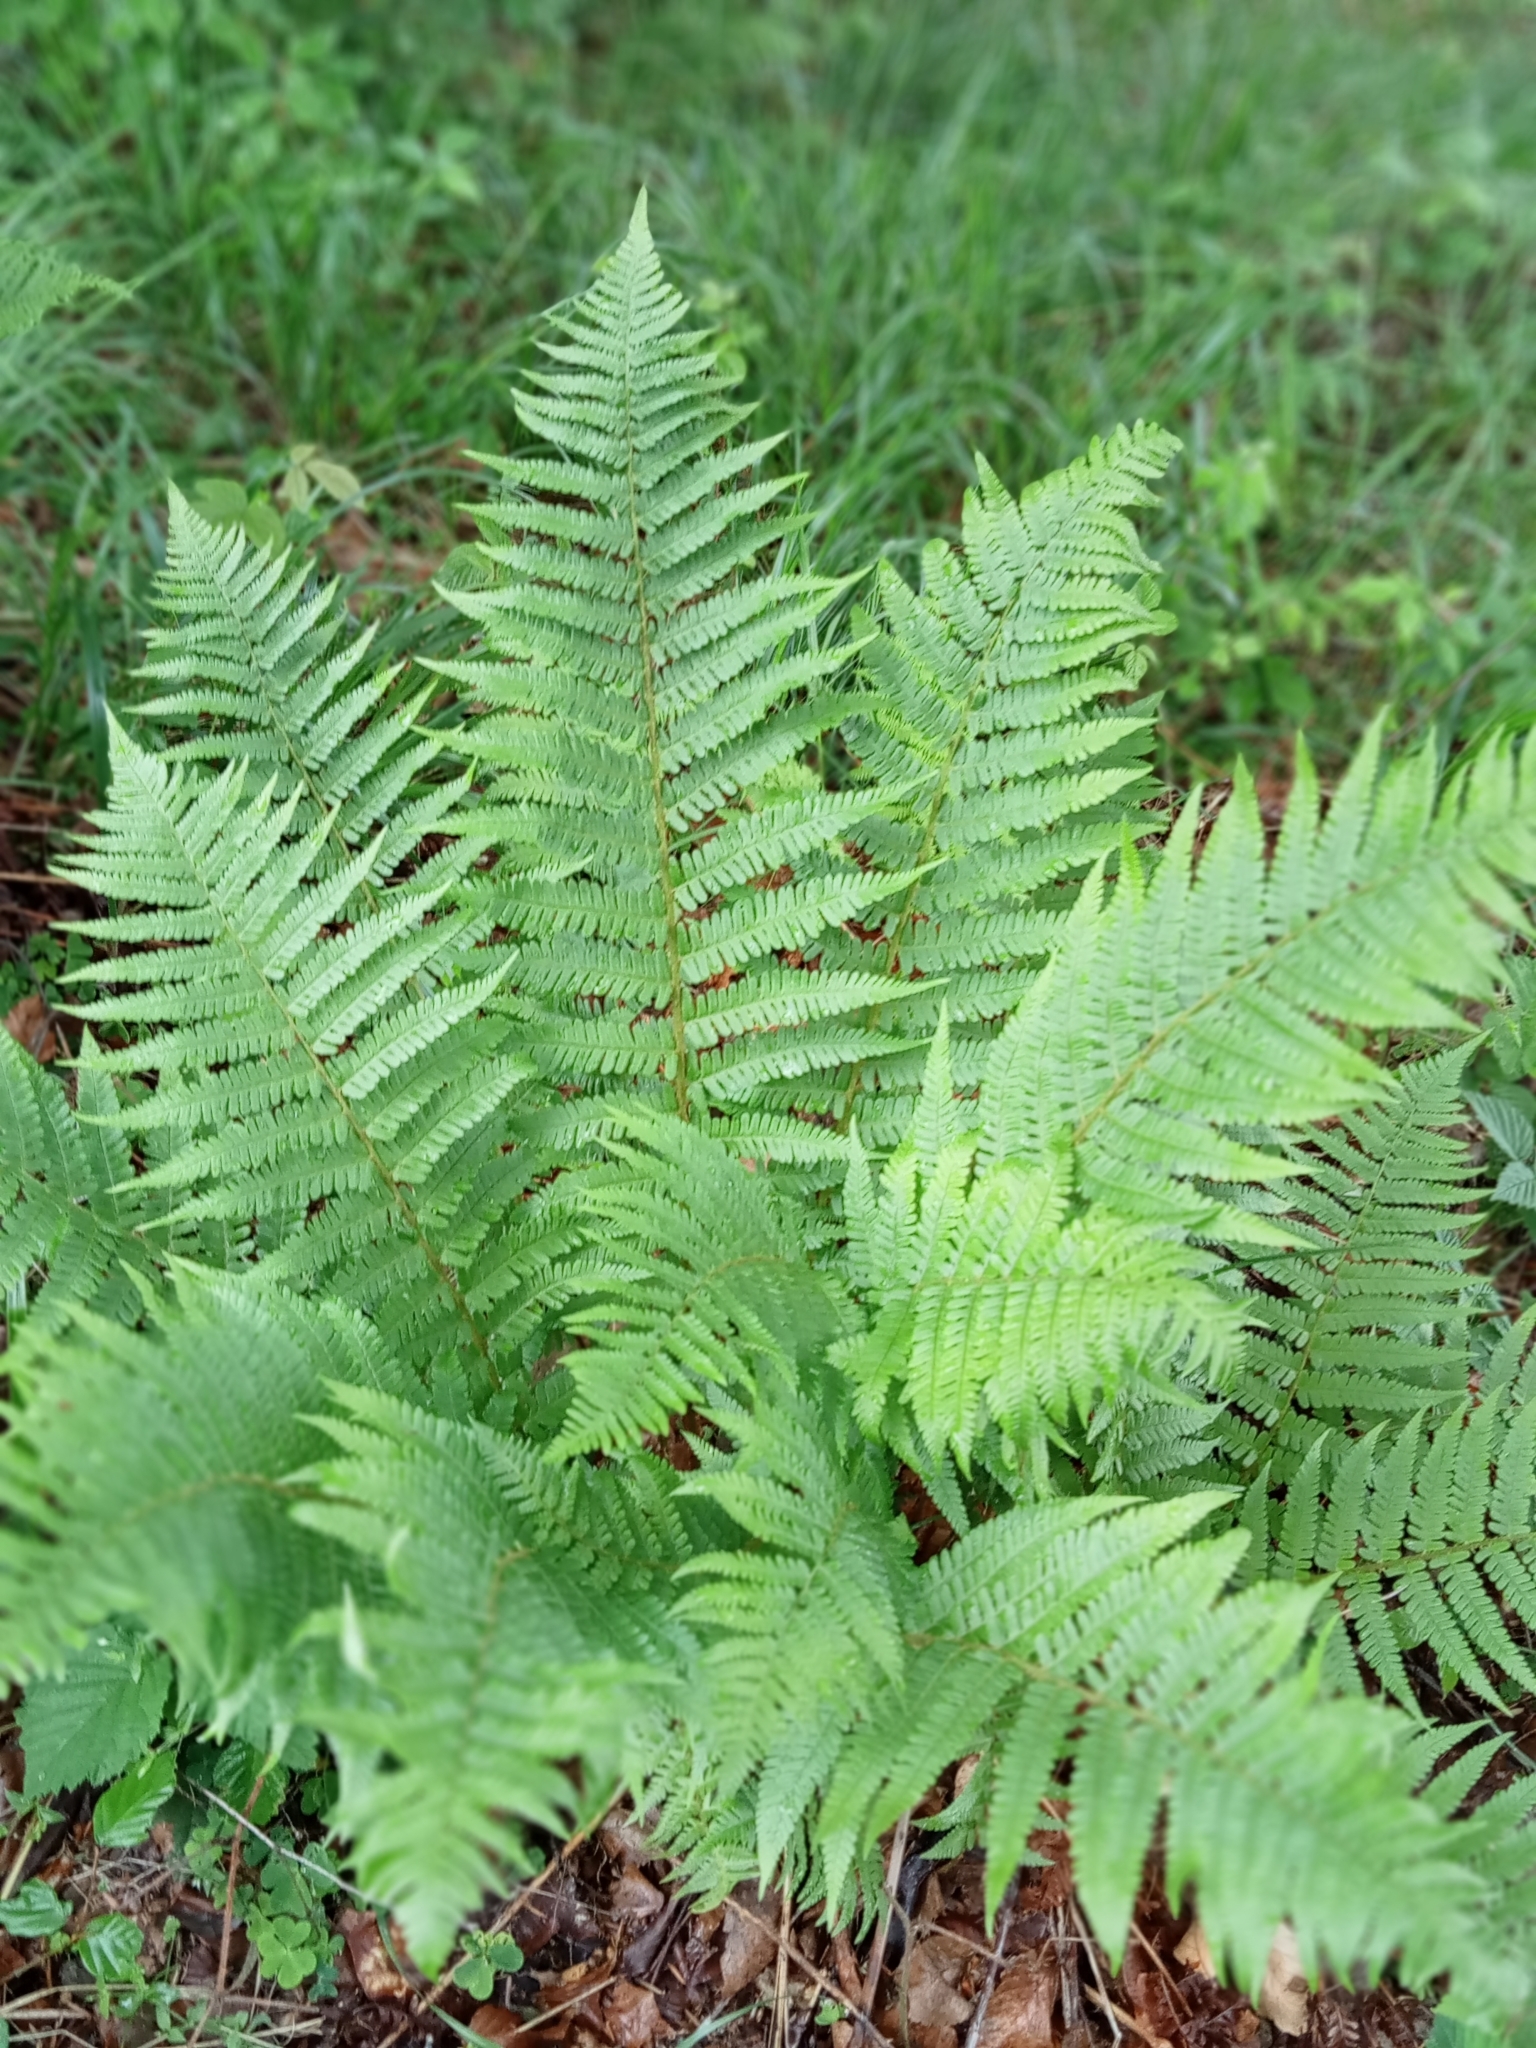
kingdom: Plantae
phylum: Tracheophyta
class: Polypodiopsida
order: Polypodiales
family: Dryopteridaceae
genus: Dryopteris
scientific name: Dryopteris filix-mas
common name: Male fern
